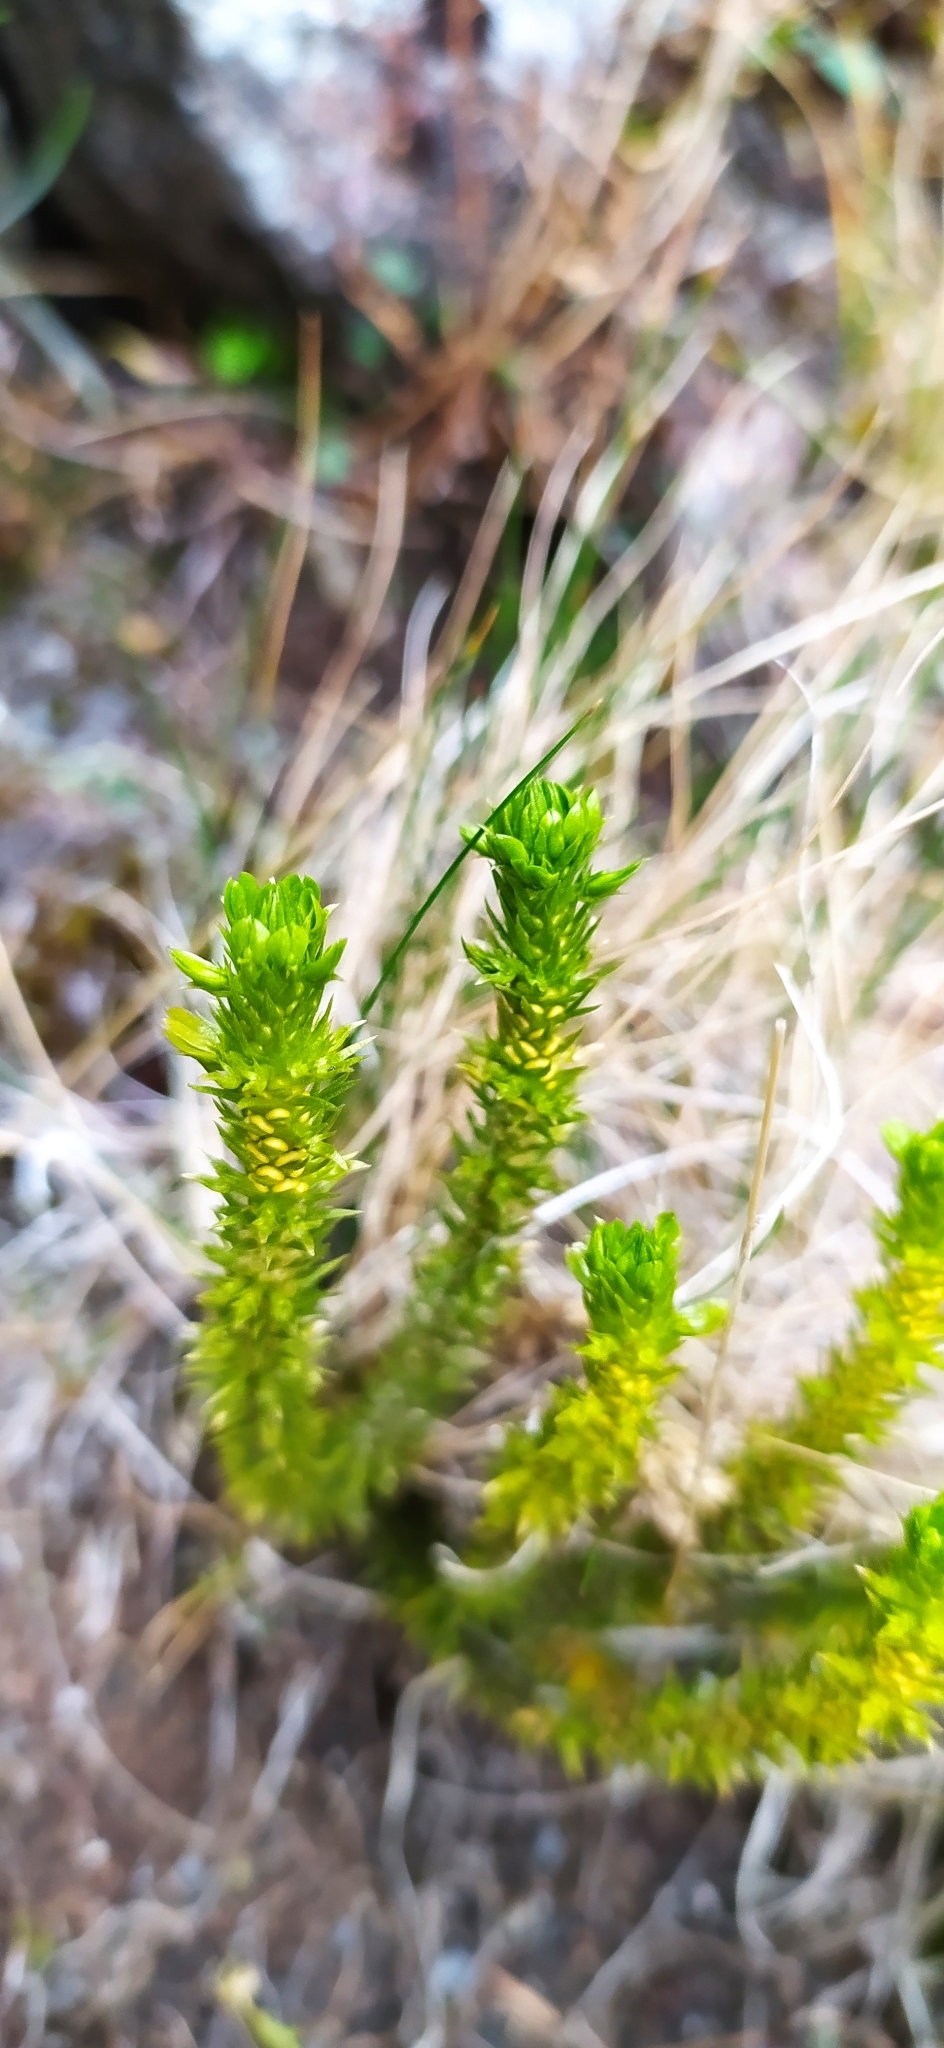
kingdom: Plantae
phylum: Tracheophyta
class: Lycopodiopsida
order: Lycopodiales
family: Lycopodiaceae
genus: Huperzia
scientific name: Huperzia selago
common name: Northern firmoss
